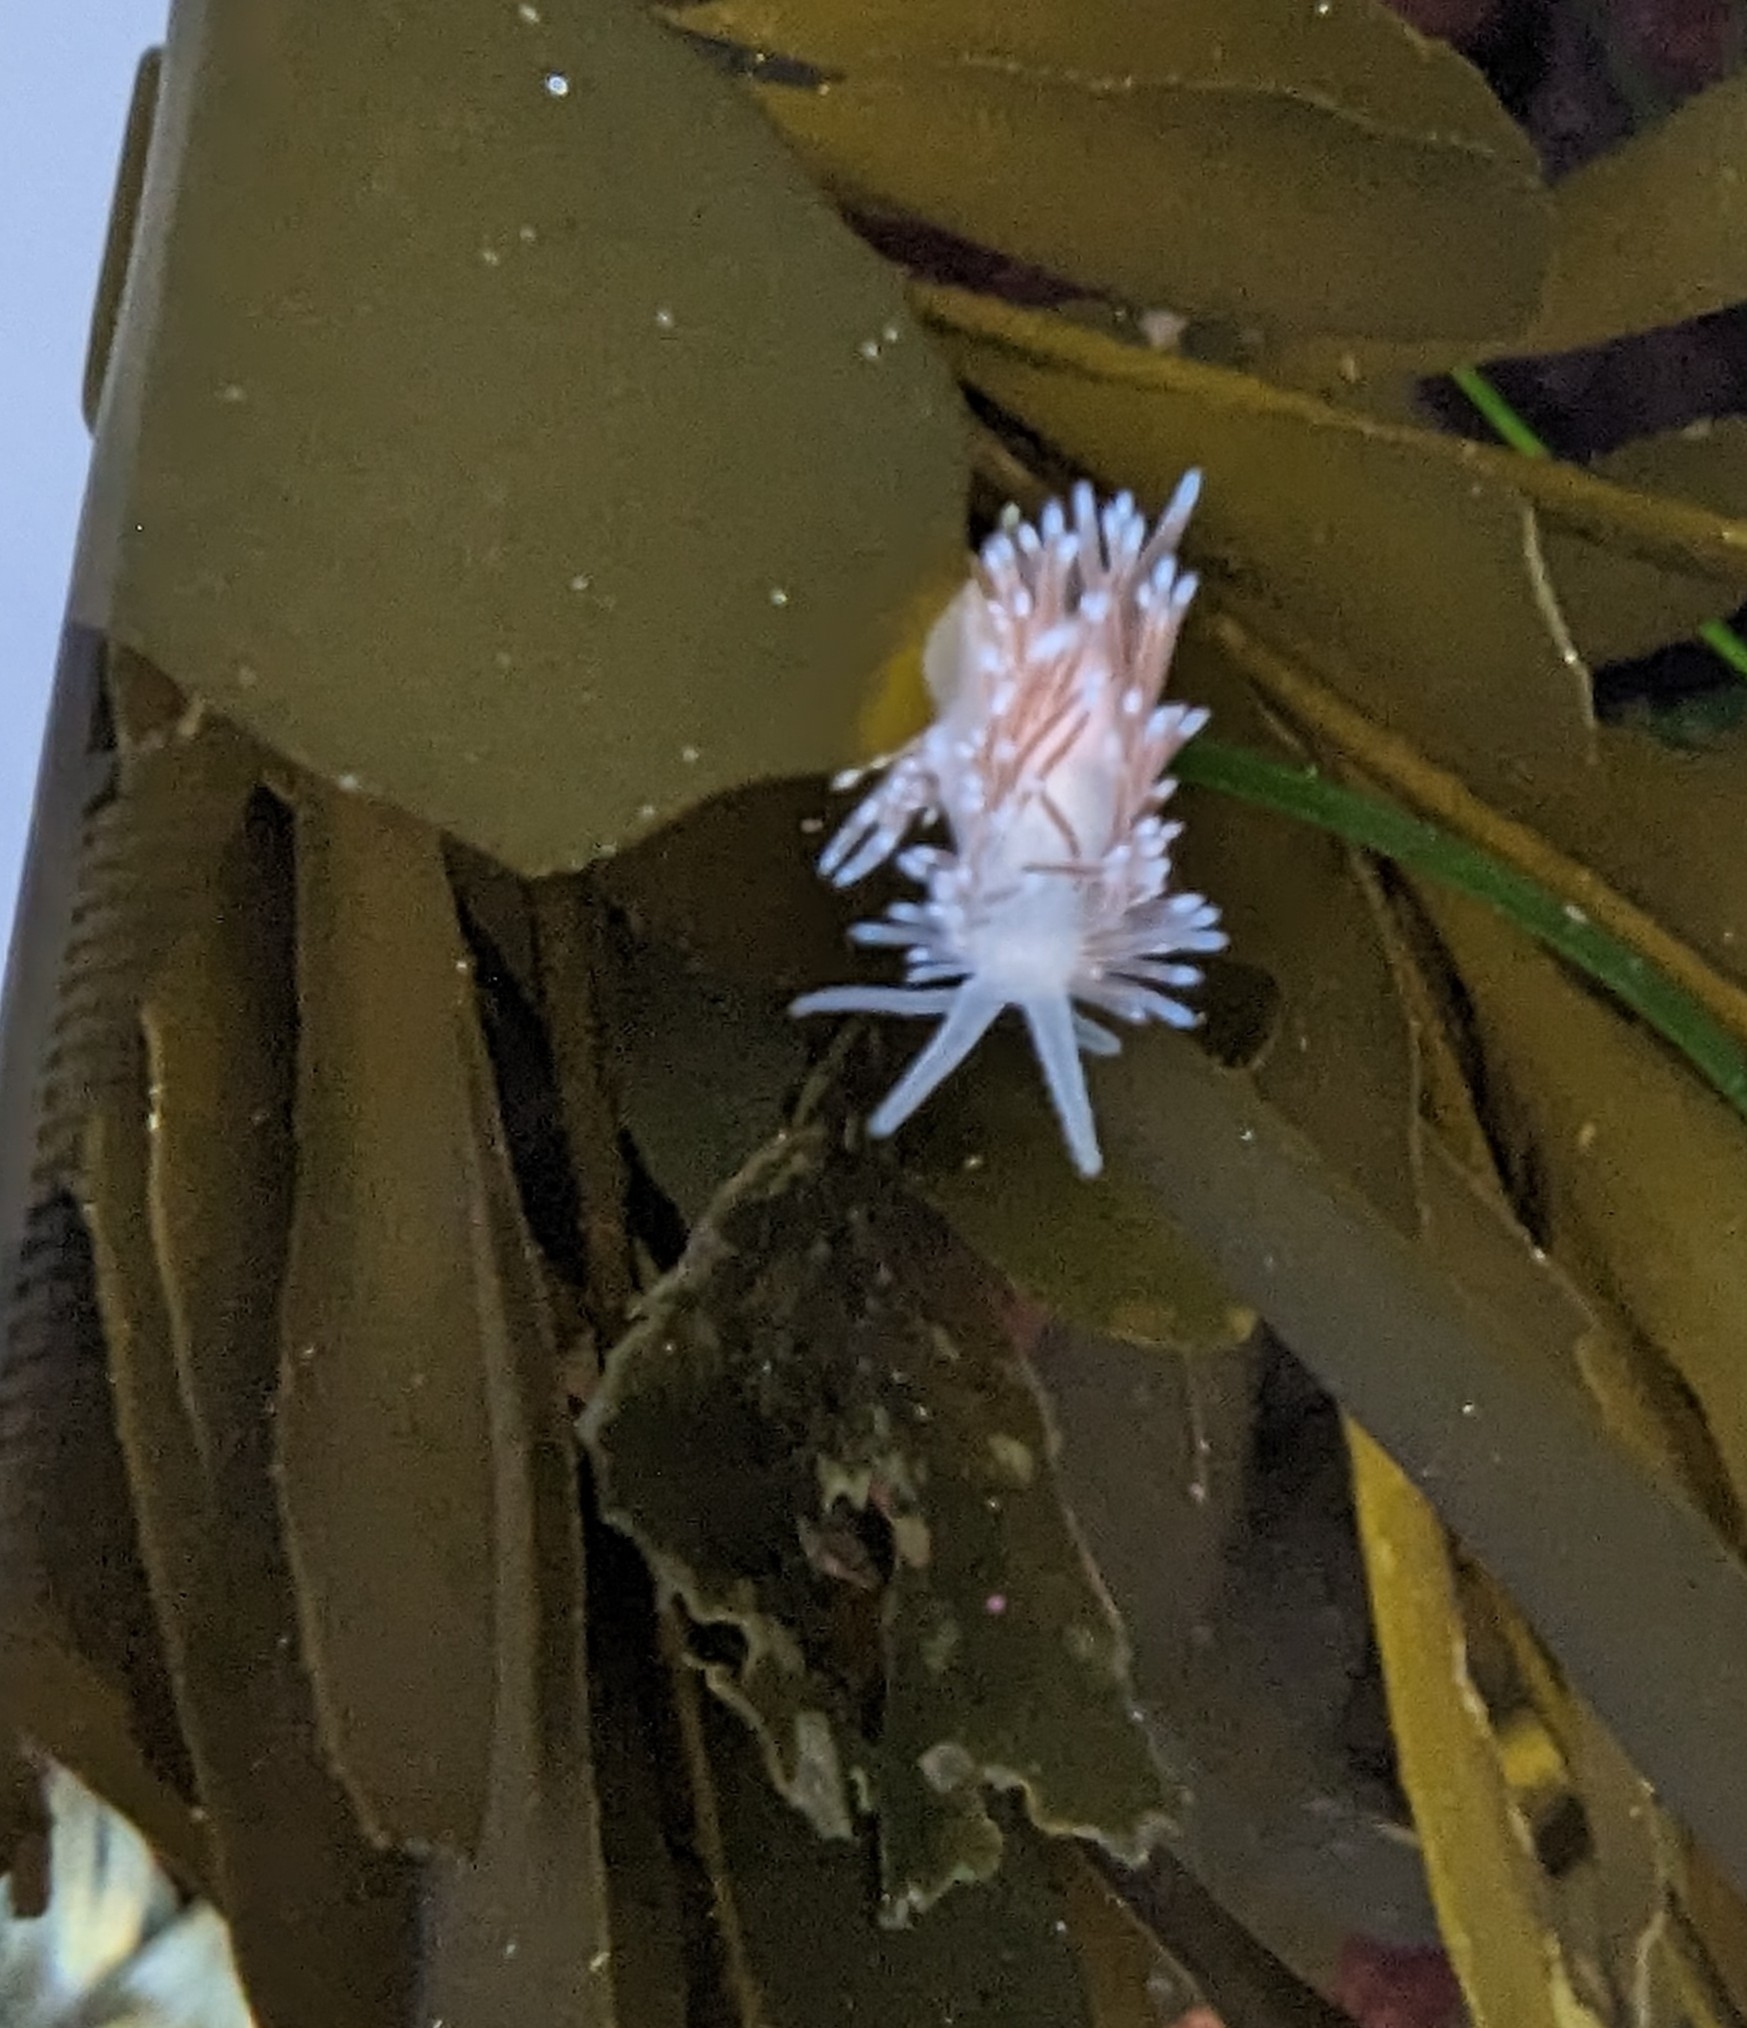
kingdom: Animalia
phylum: Mollusca
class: Gastropoda
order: Nudibranchia
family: Cuthonidae
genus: Cuthona
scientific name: Cuthona divae
